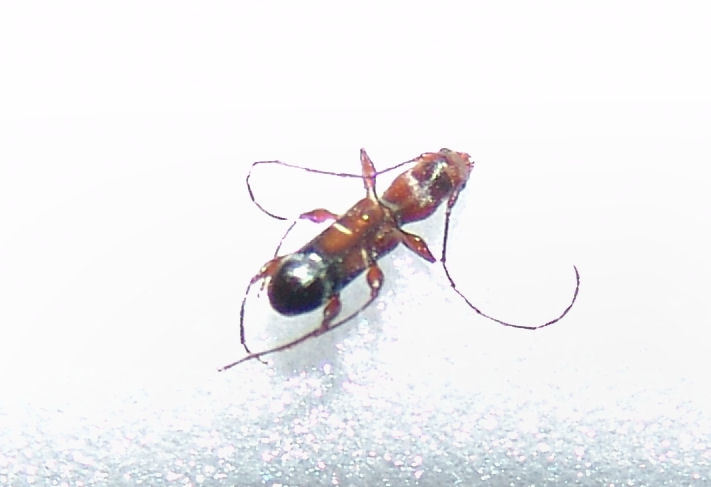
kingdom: Animalia
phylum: Arthropoda
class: Insecta
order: Coleoptera
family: Cerambycidae
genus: Euderces
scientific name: Euderces pini
